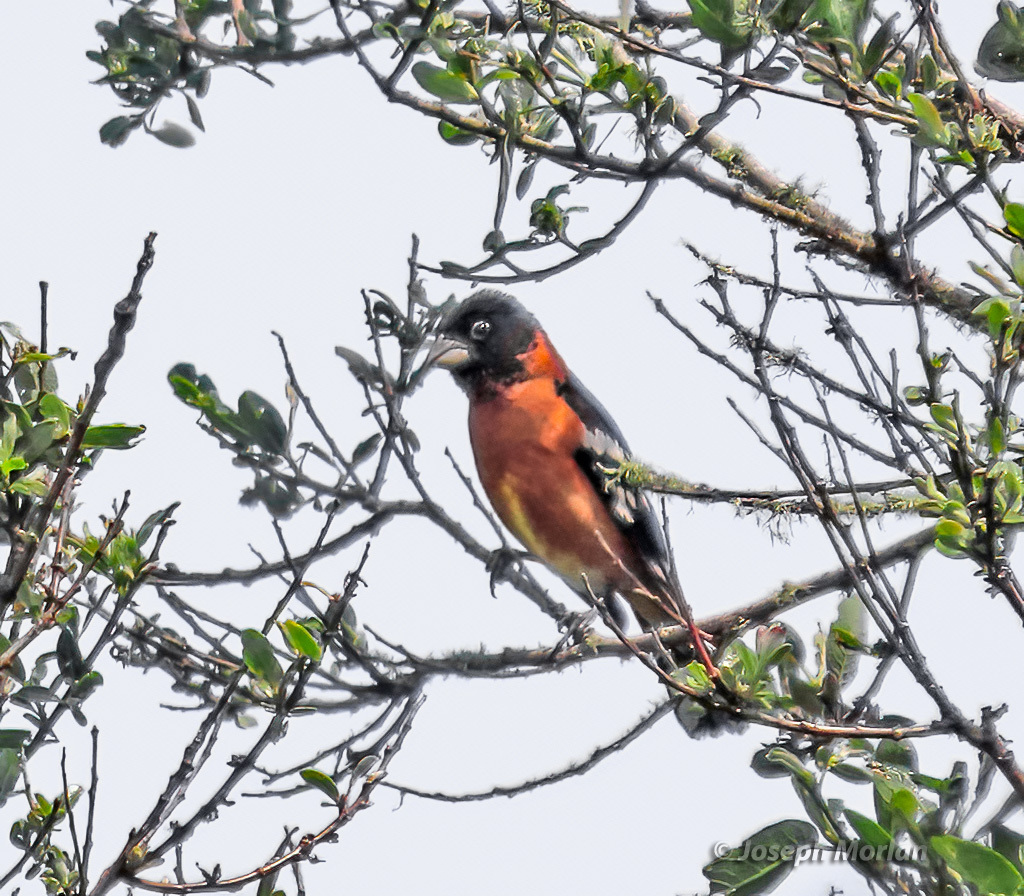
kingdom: Animalia
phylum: Chordata
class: Aves
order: Passeriformes
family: Cardinalidae
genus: Pheucticus
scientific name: Pheucticus melanocephalus
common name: Black-headed grosbeak
